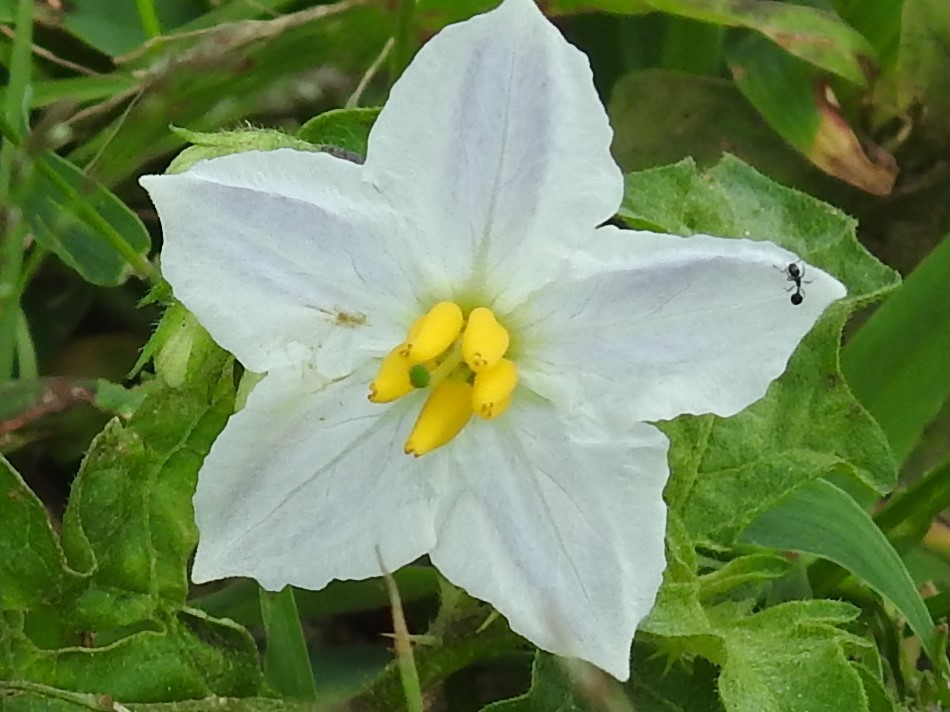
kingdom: Plantae
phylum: Tracheophyta
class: Magnoliopsida
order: Solanales
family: Solanaceae
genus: Solanum
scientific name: Solanum carolinense
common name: Horse-nettle
